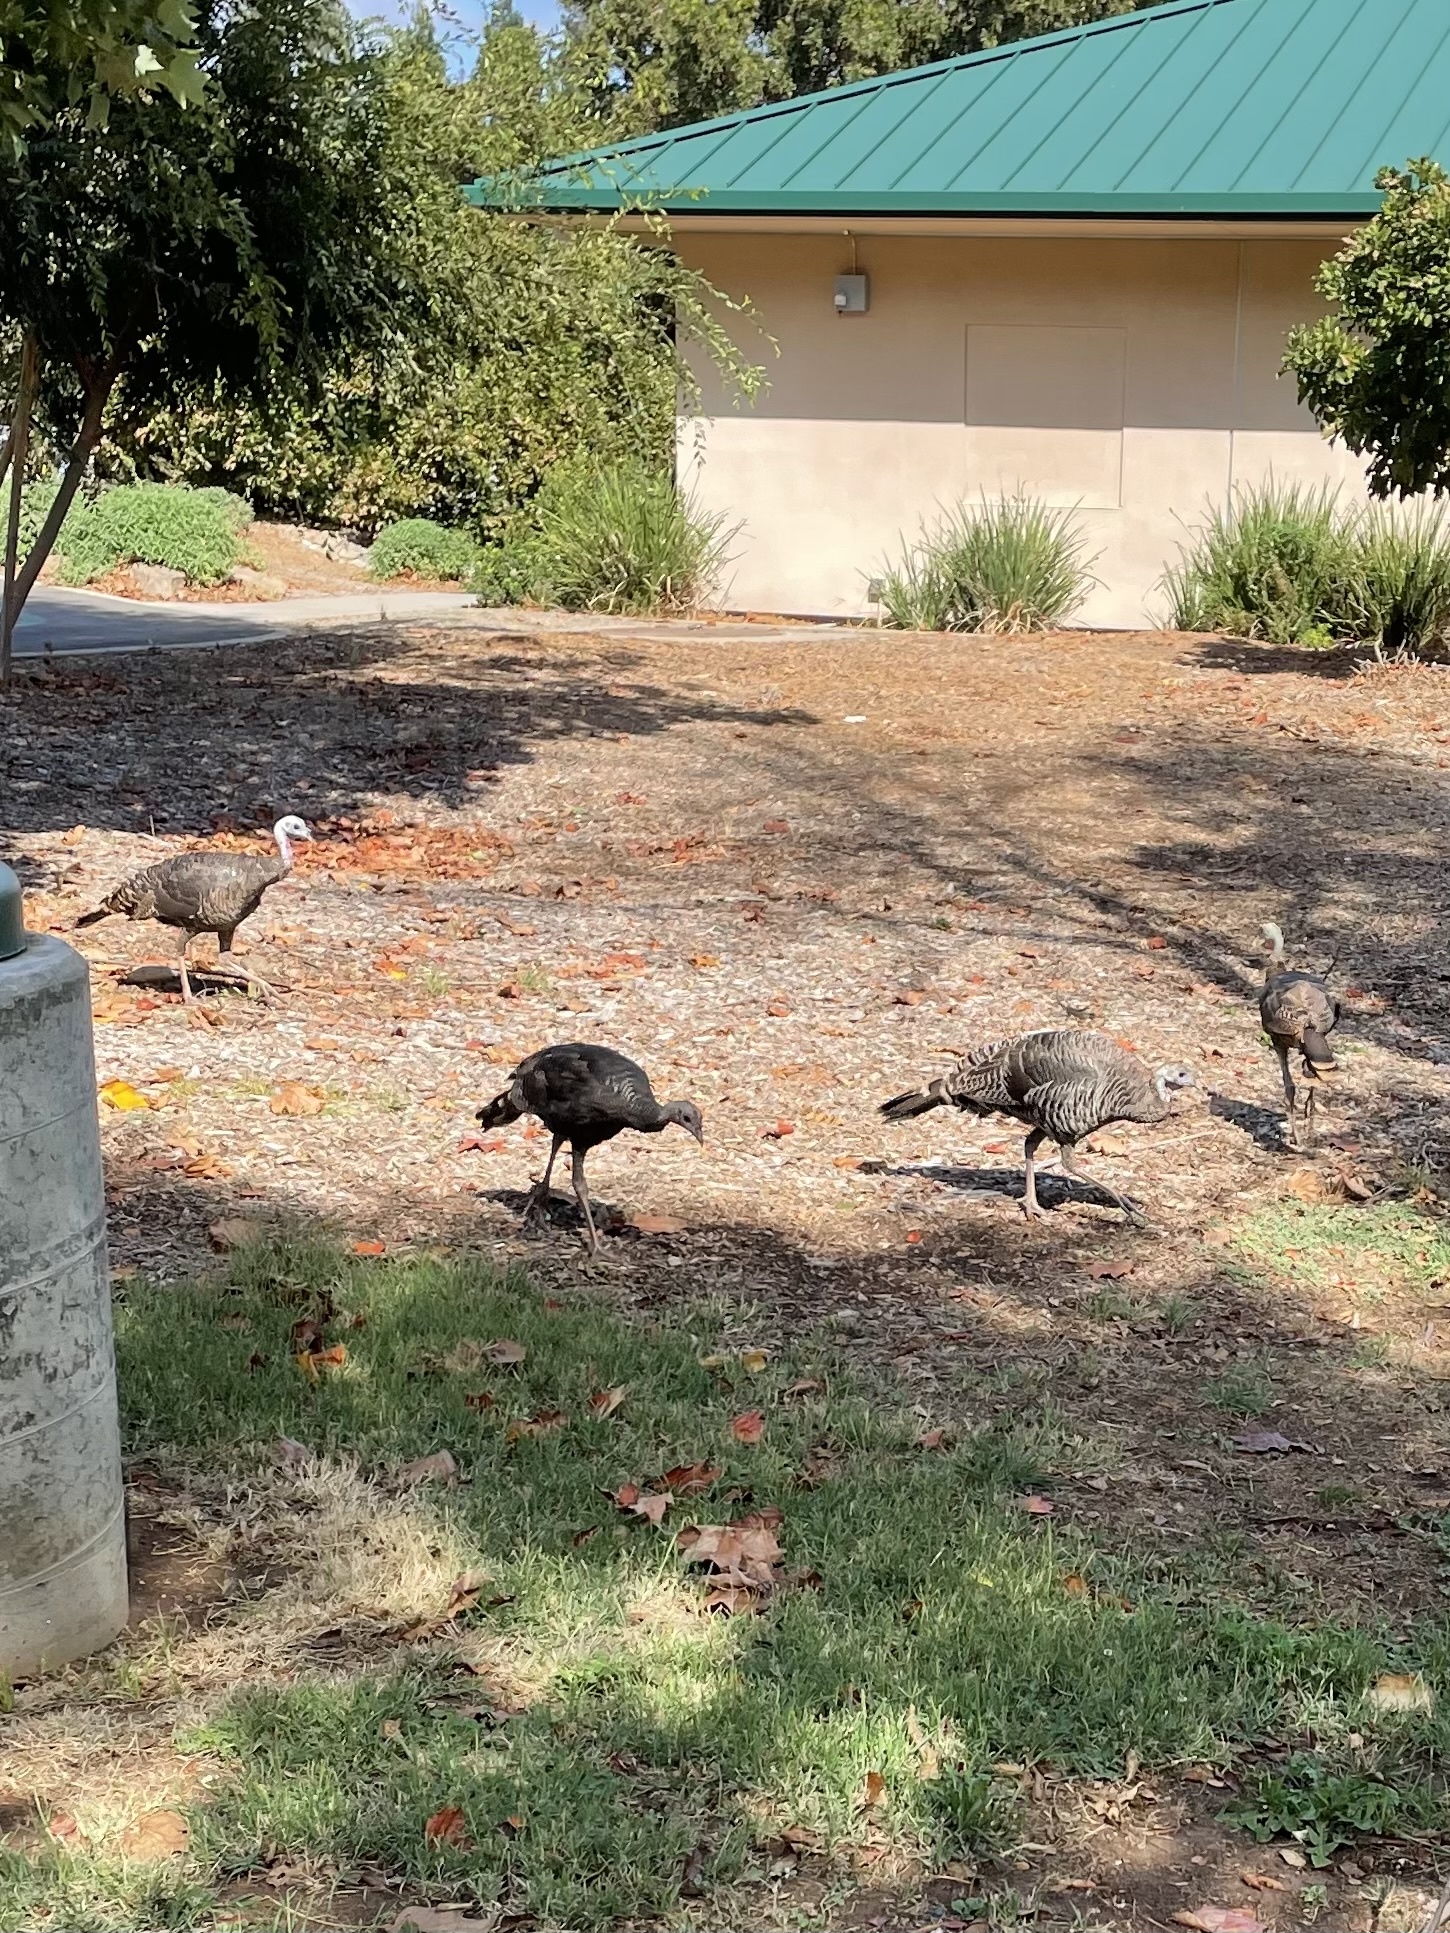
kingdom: Animalia
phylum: Chordata
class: Aves
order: Galliformes
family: Phasianidae
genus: Meleagris
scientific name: Meleagris gallopavo
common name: Wild turkey
